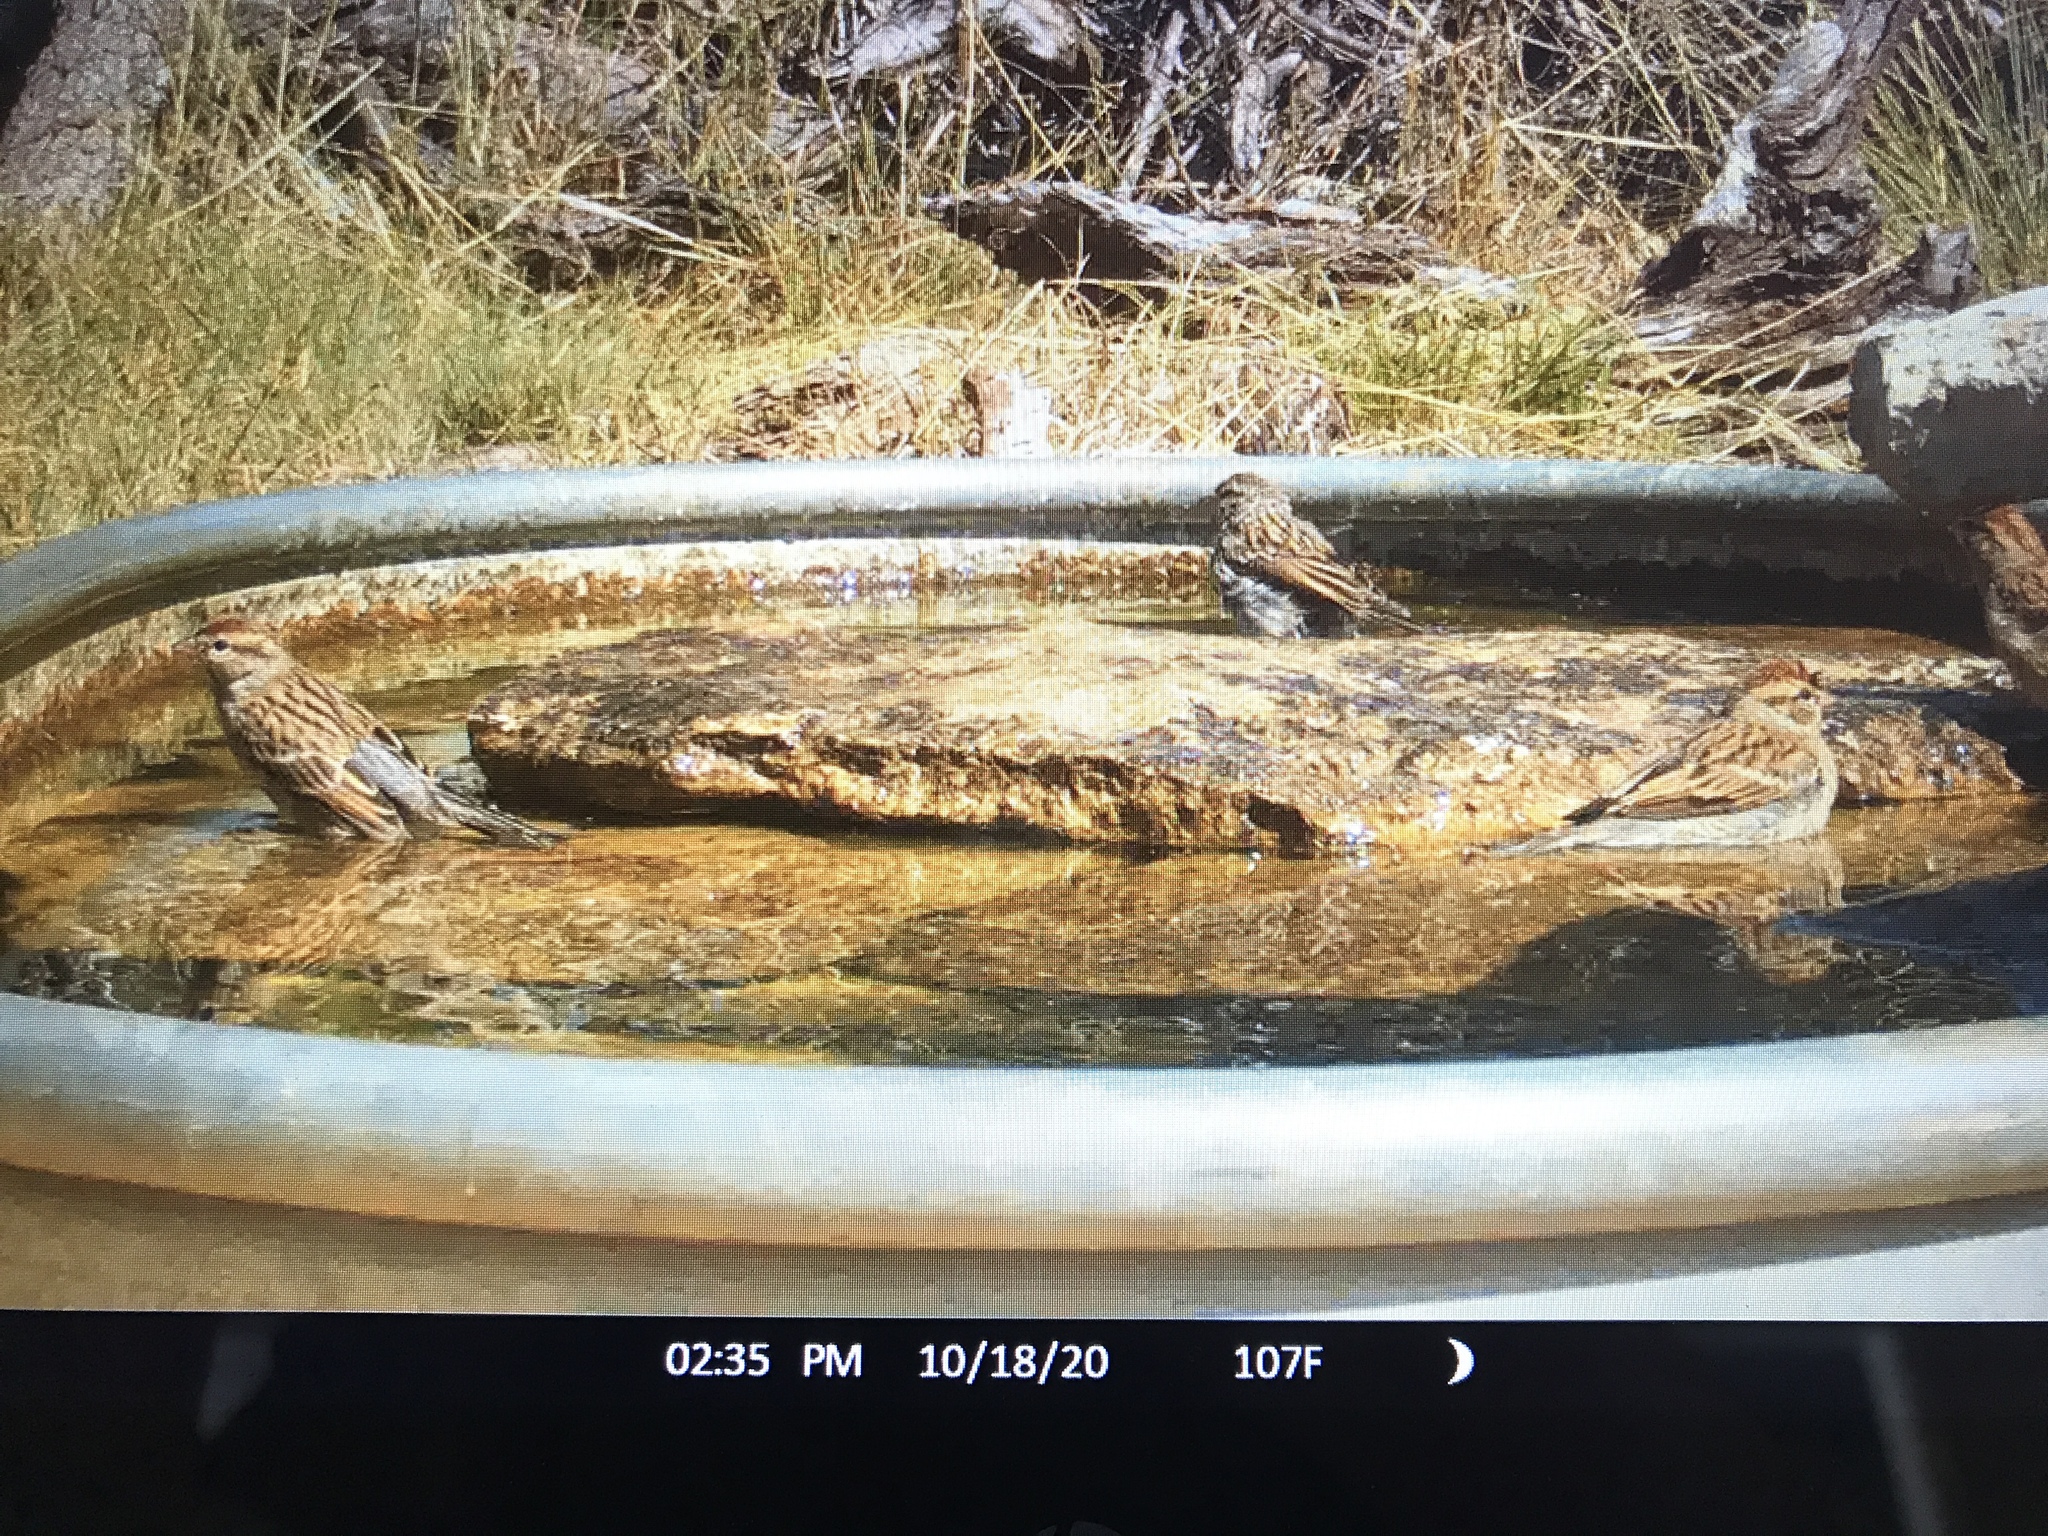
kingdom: Animalia
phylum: Chordata
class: Aves
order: Passeriformes
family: Passerellidae
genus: Spizella
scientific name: Spizella passerina
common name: Chipping sparrow
